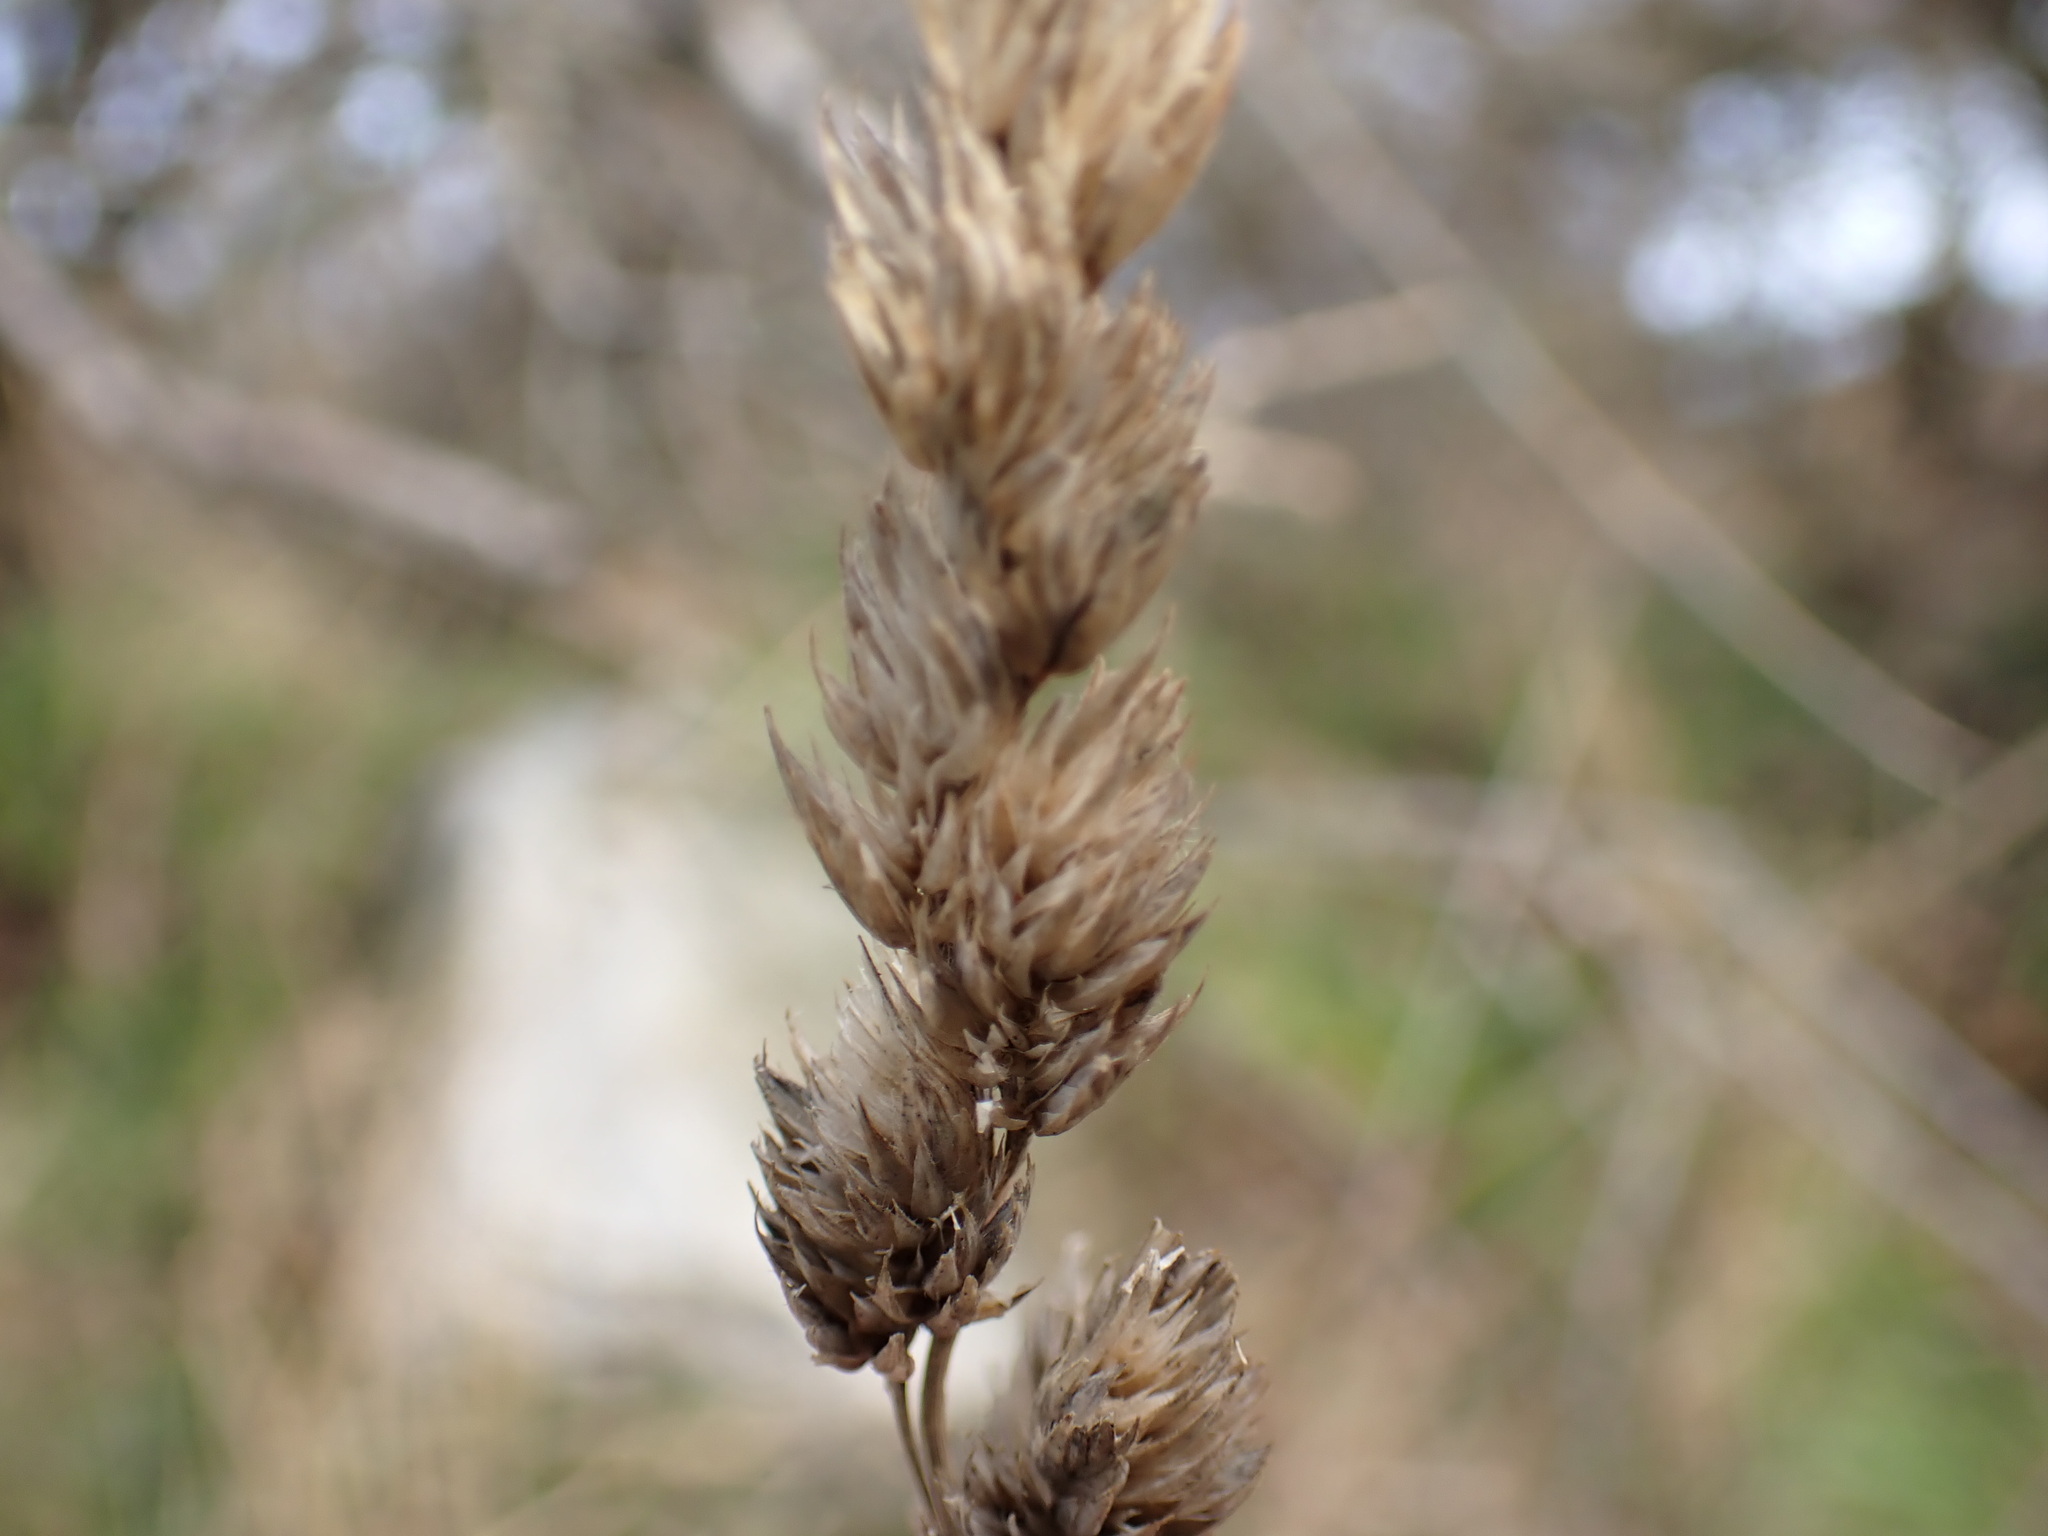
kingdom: Plantae
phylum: Tracheophyta
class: Liliopsida
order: Poales
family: Poaceae
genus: Dactylis
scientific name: Dactylis glomerata
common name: Orchardgrass
